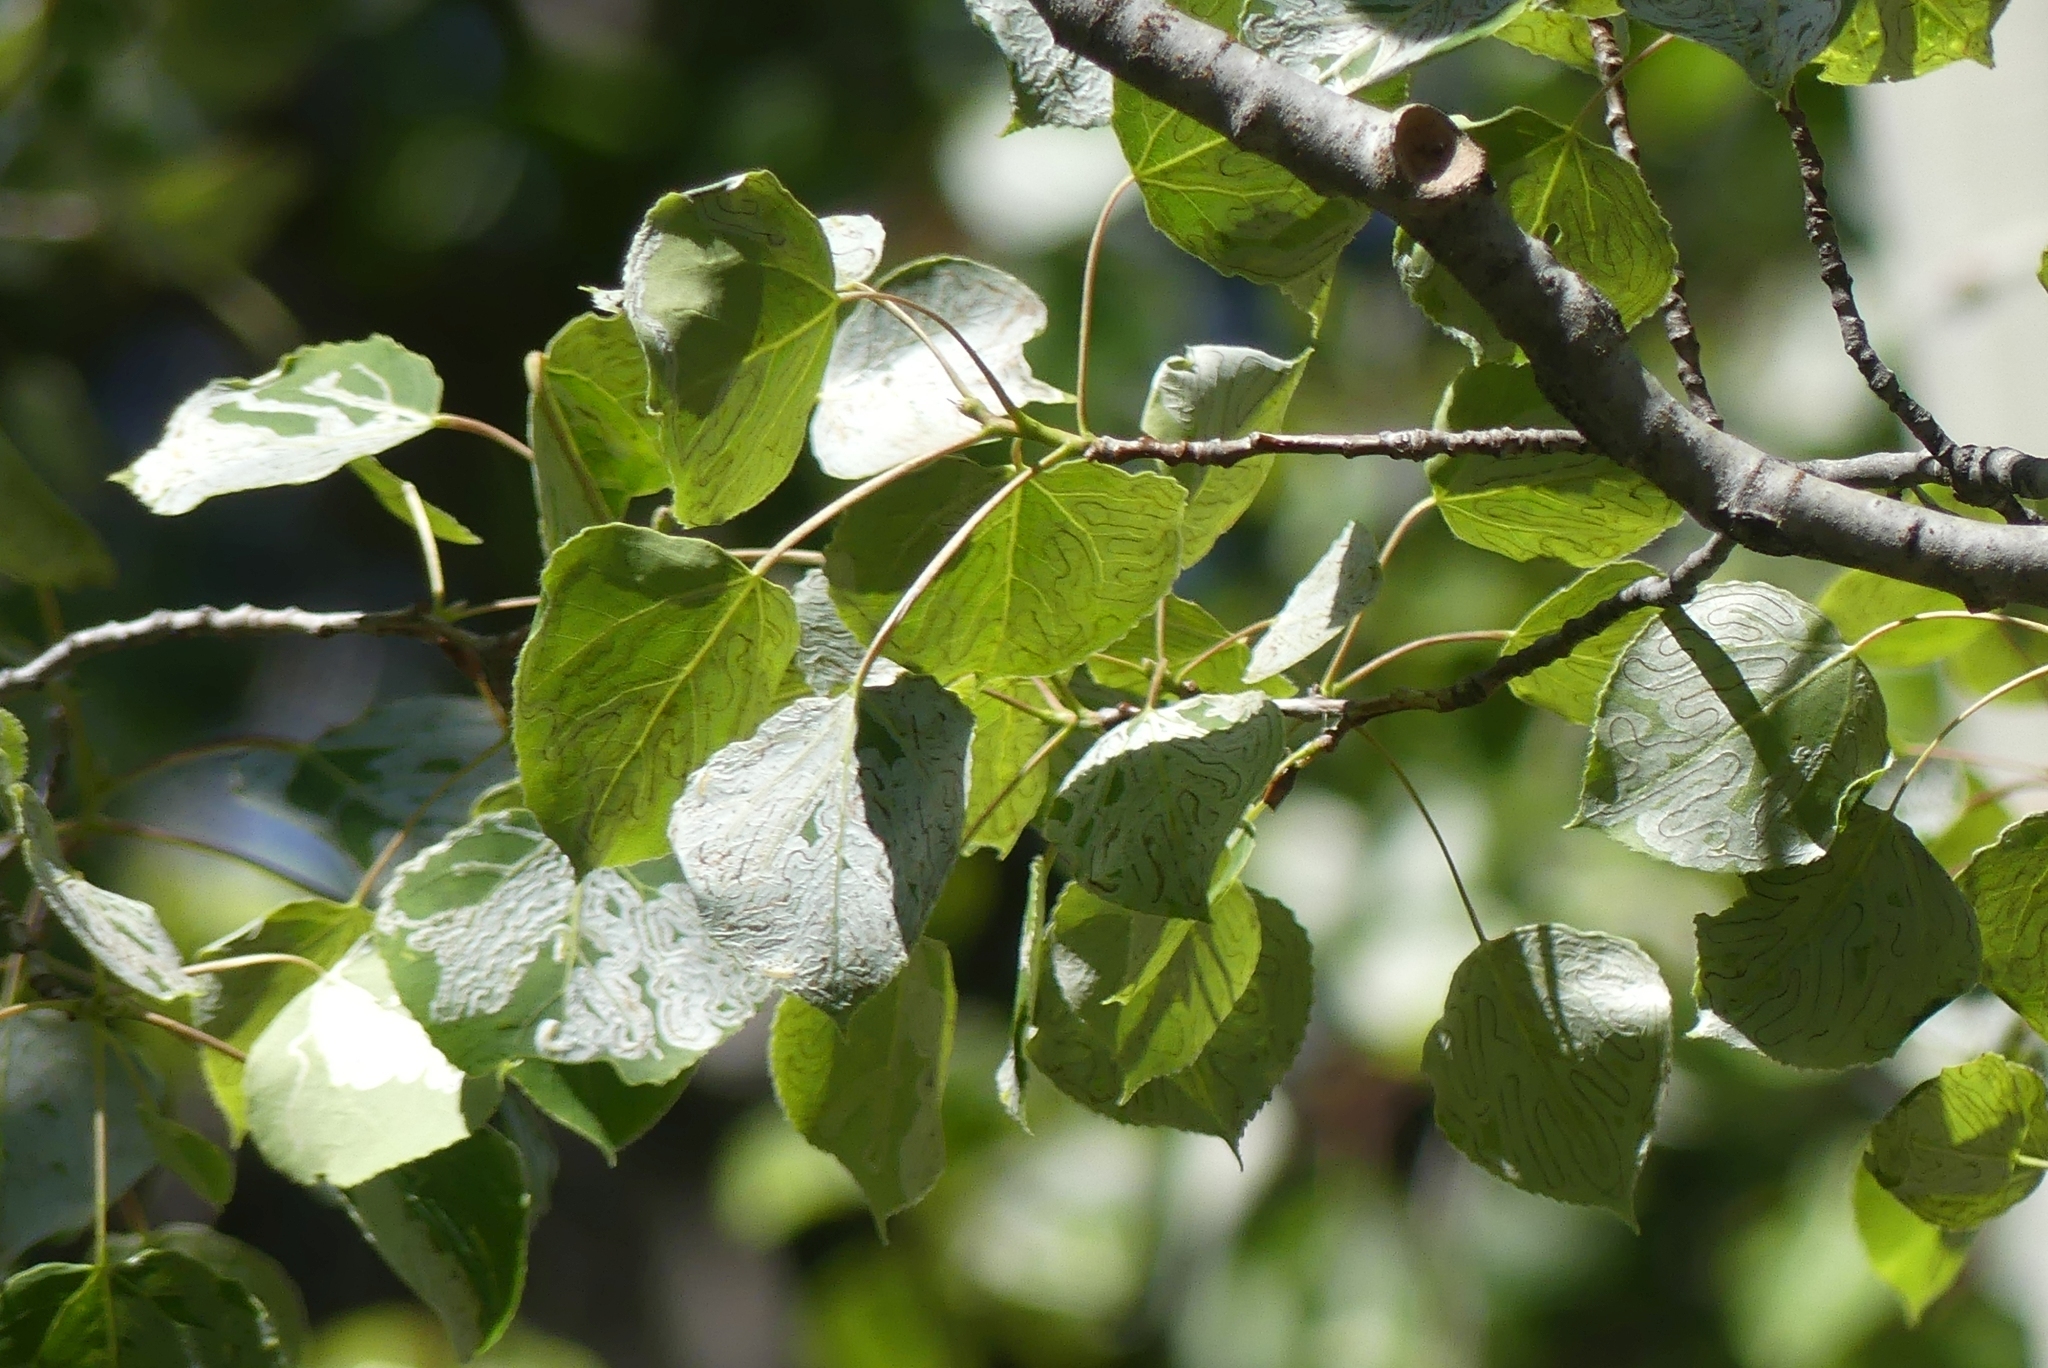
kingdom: Plantae
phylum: Tracheophyta
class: Magnoliopsida
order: Malpighiales
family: Salicaceae
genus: Populus
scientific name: Populus tremuloides
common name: Quaking aspen
